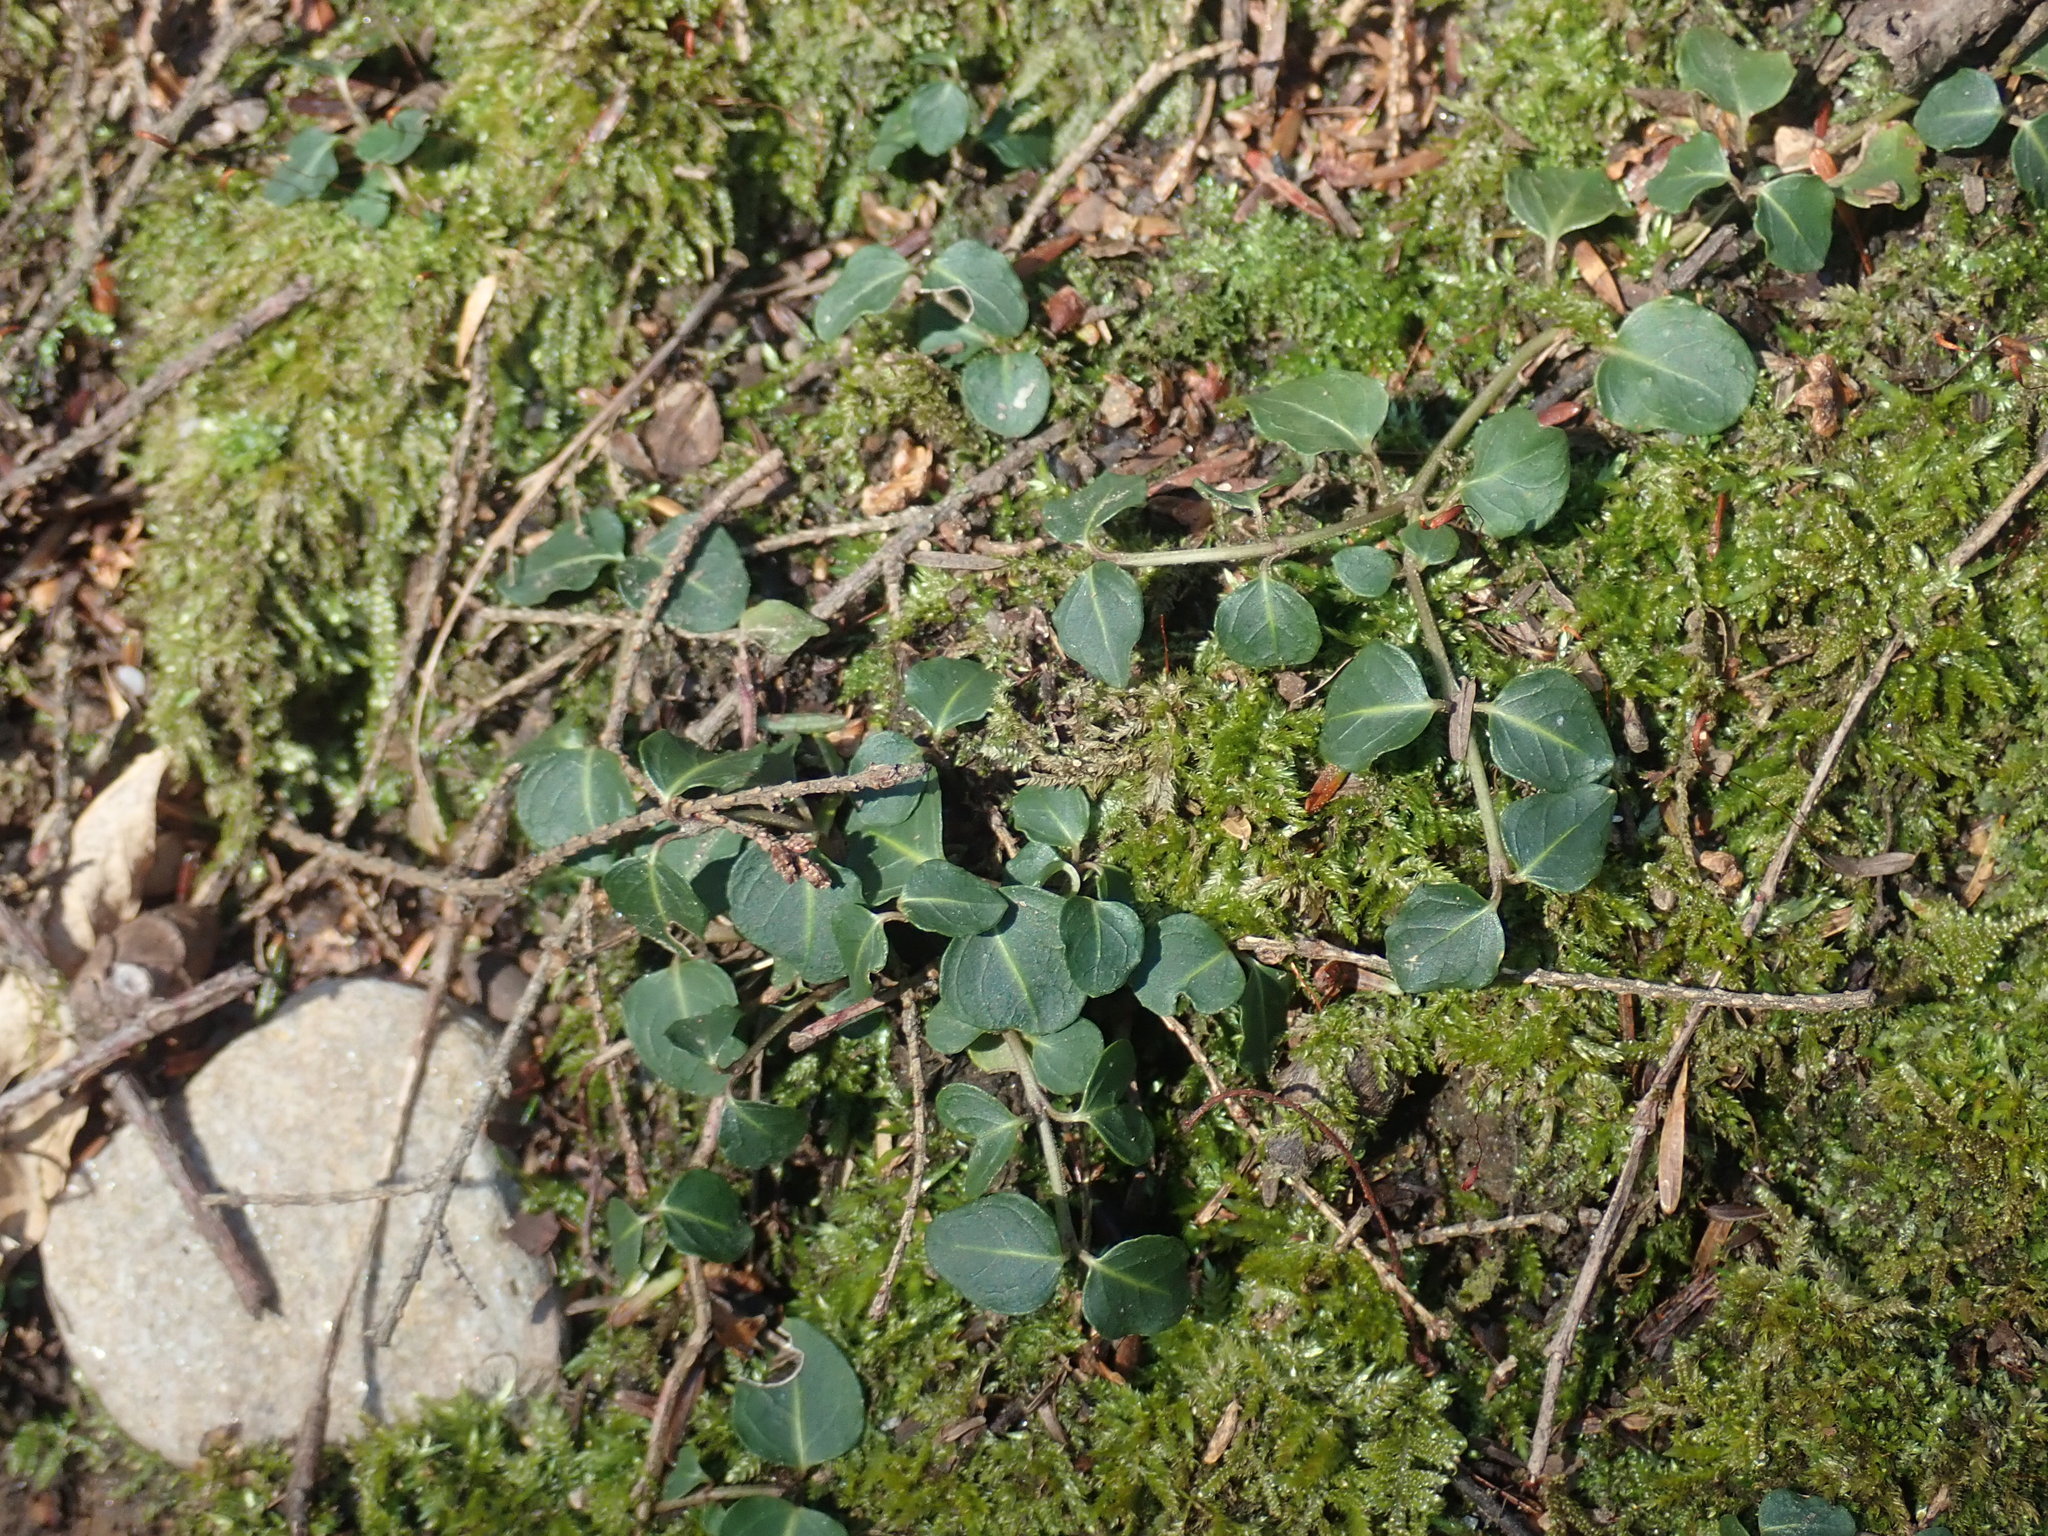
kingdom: Plantae
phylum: Tracheophyta
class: Magnoliopsida
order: Gentianales
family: Rubiaceae
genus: Mitchella
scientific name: Mitchella repens
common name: Partridge-berry
